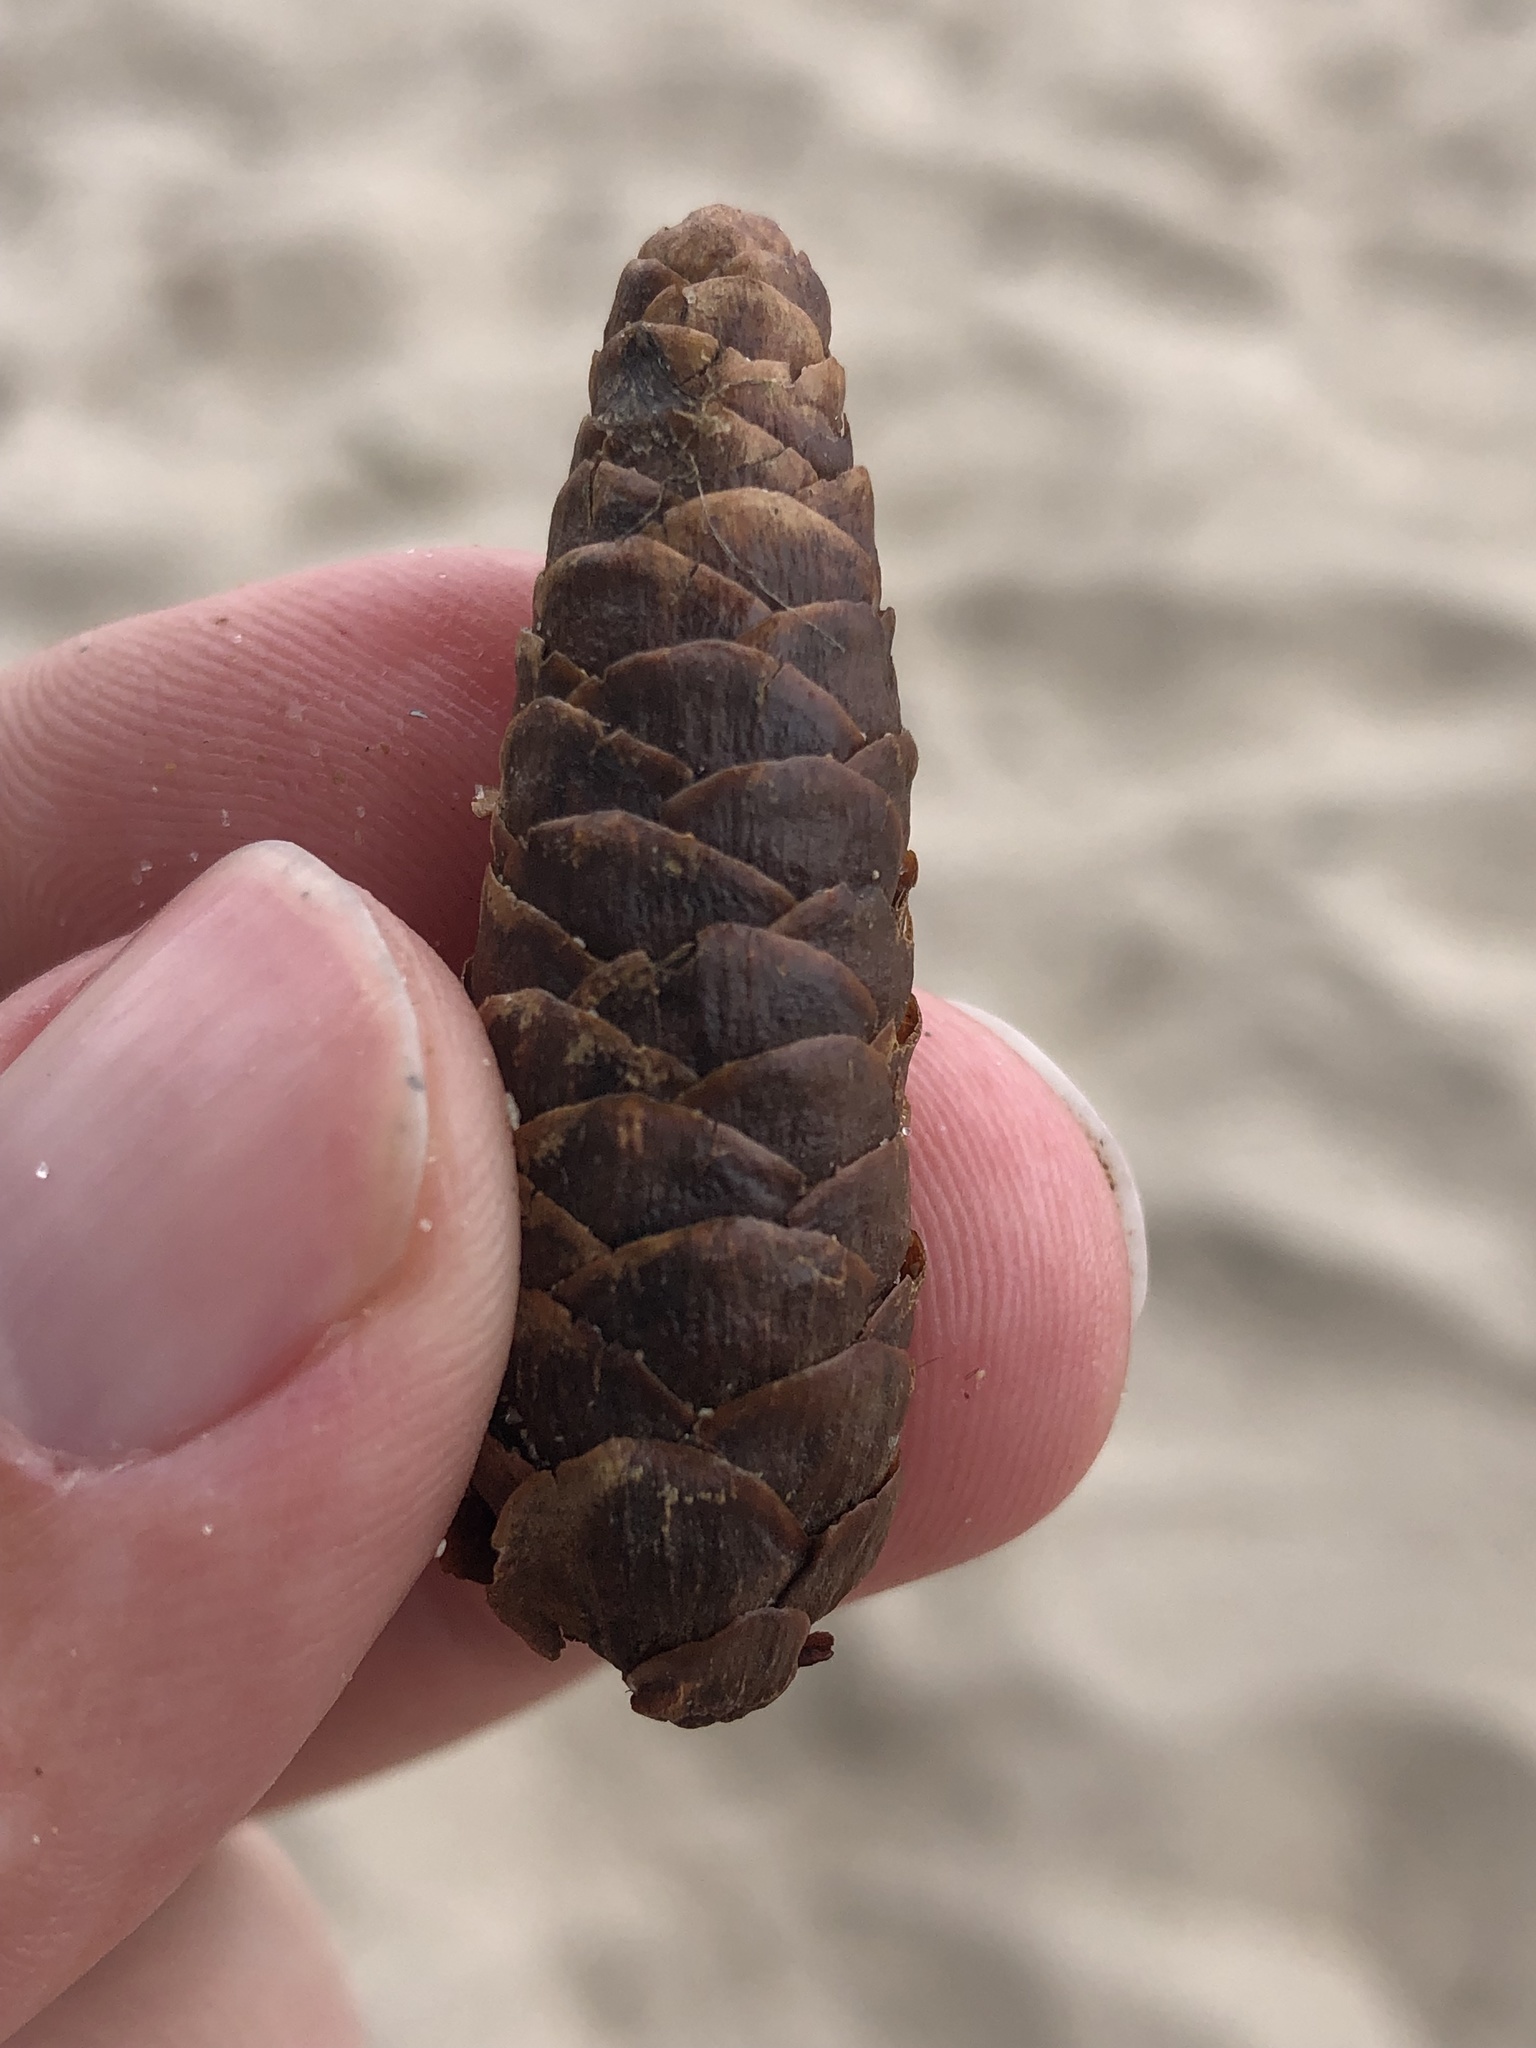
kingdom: Plantae
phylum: Tracheophyta
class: Pinopsida
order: Pinales
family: Pinaceae
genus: Picea
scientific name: Picea glauca
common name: White spruce
